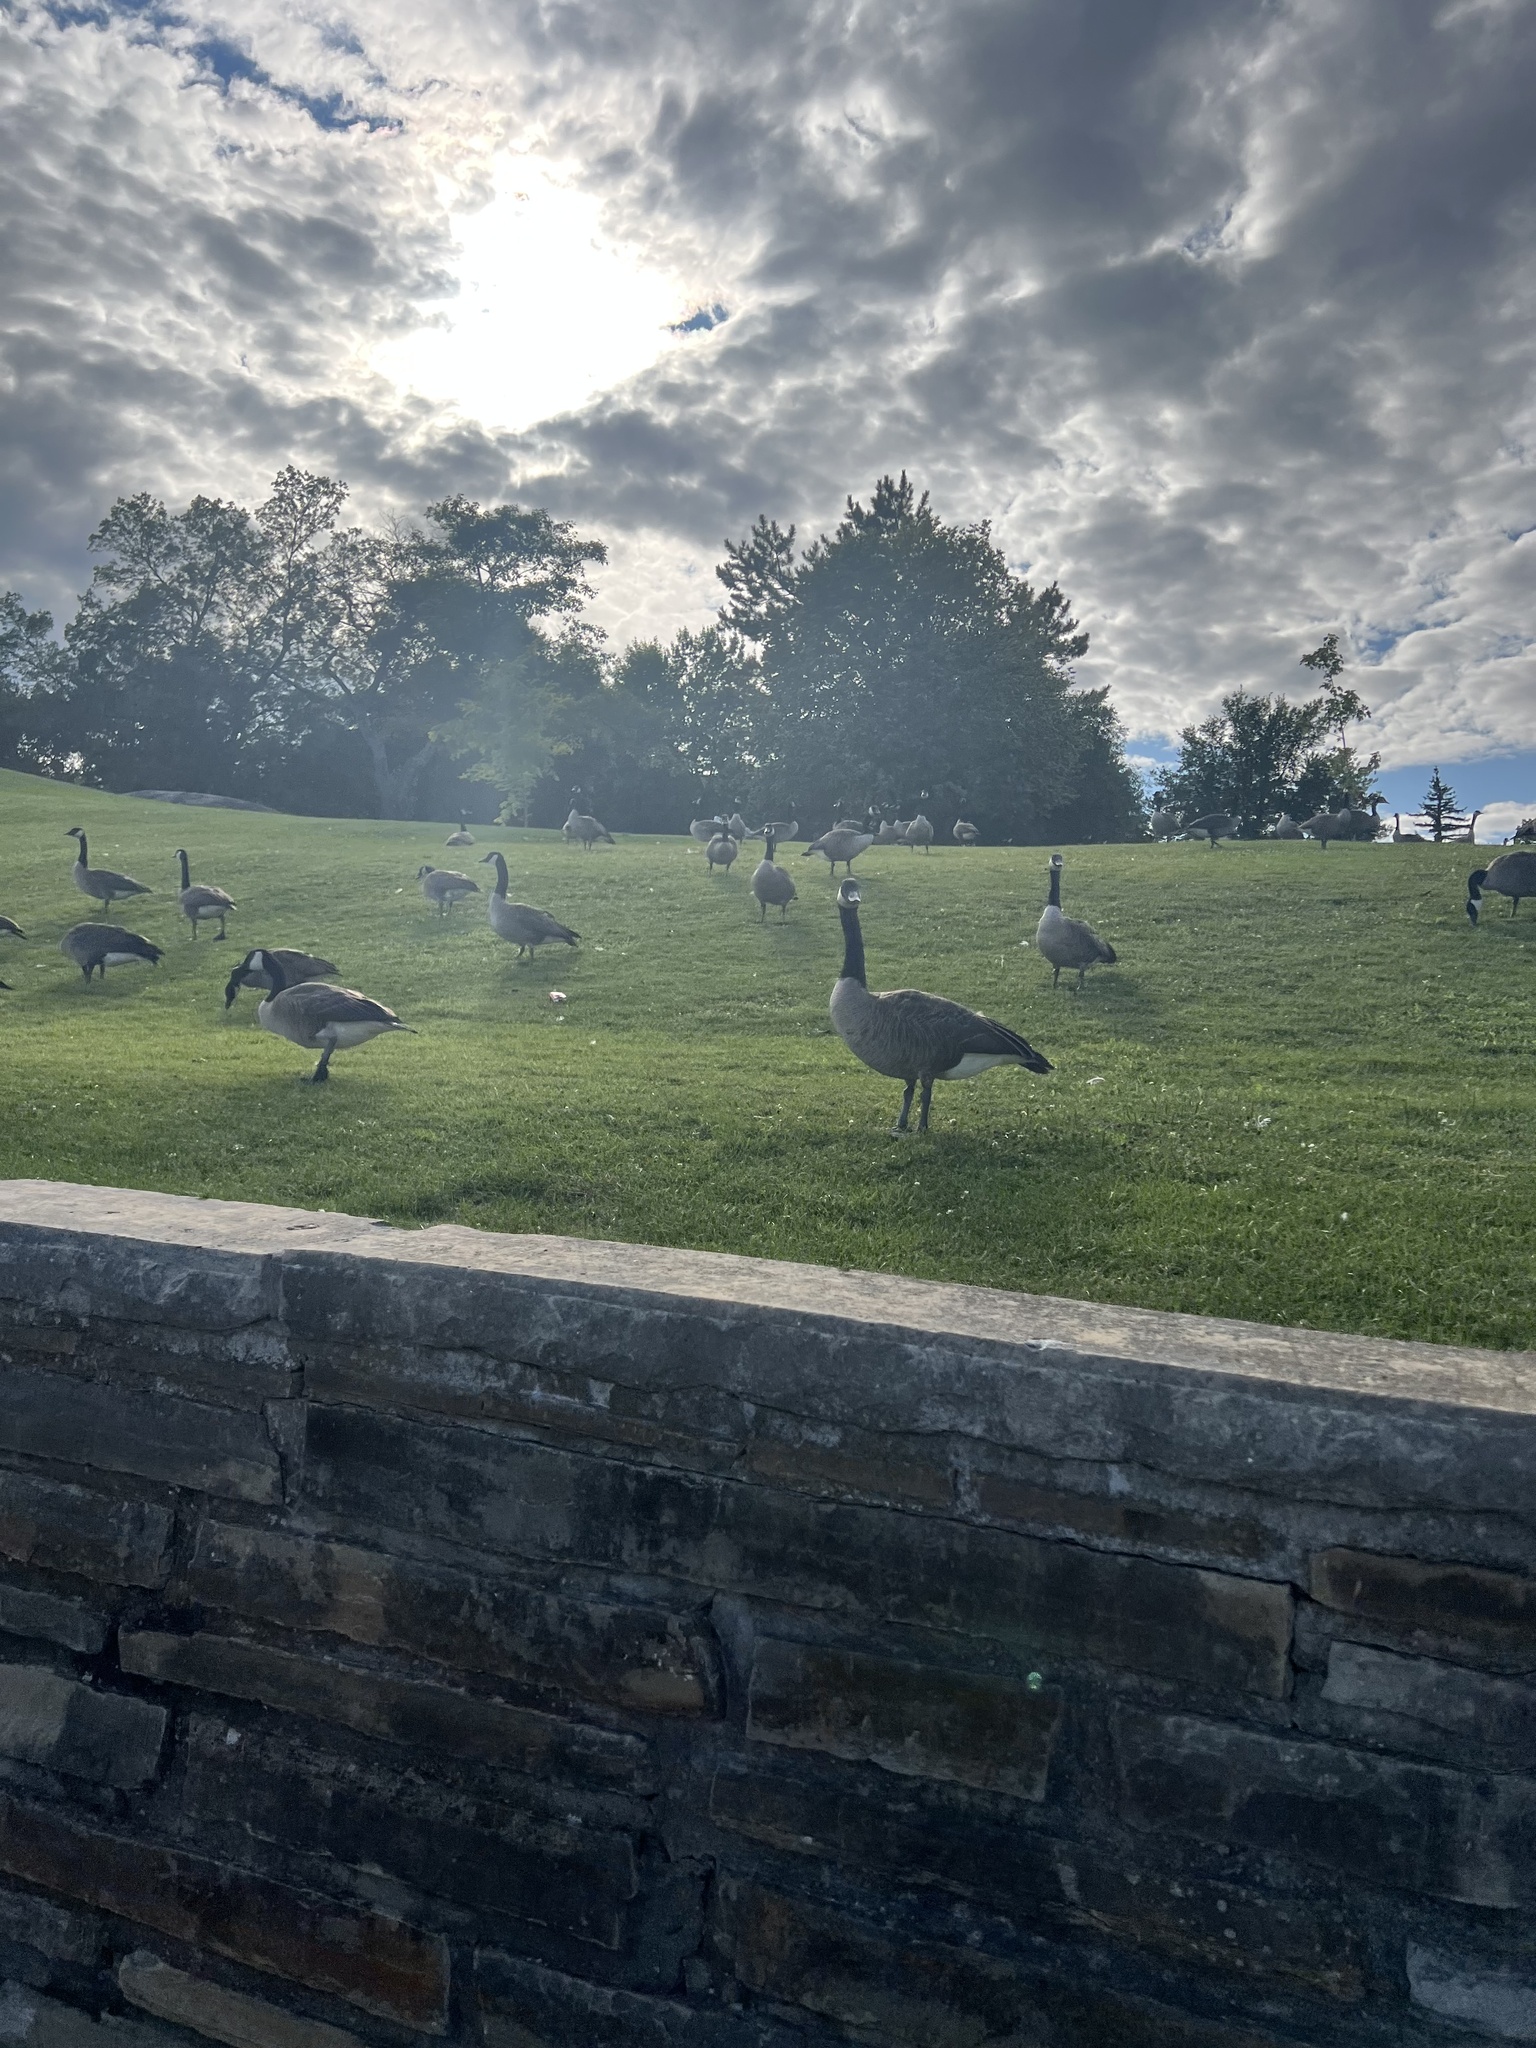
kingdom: Animalia
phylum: Chordata
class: Aves
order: Anseriformes
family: Anatidae
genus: Branta
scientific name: Branta canadensis
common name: Canada goose
